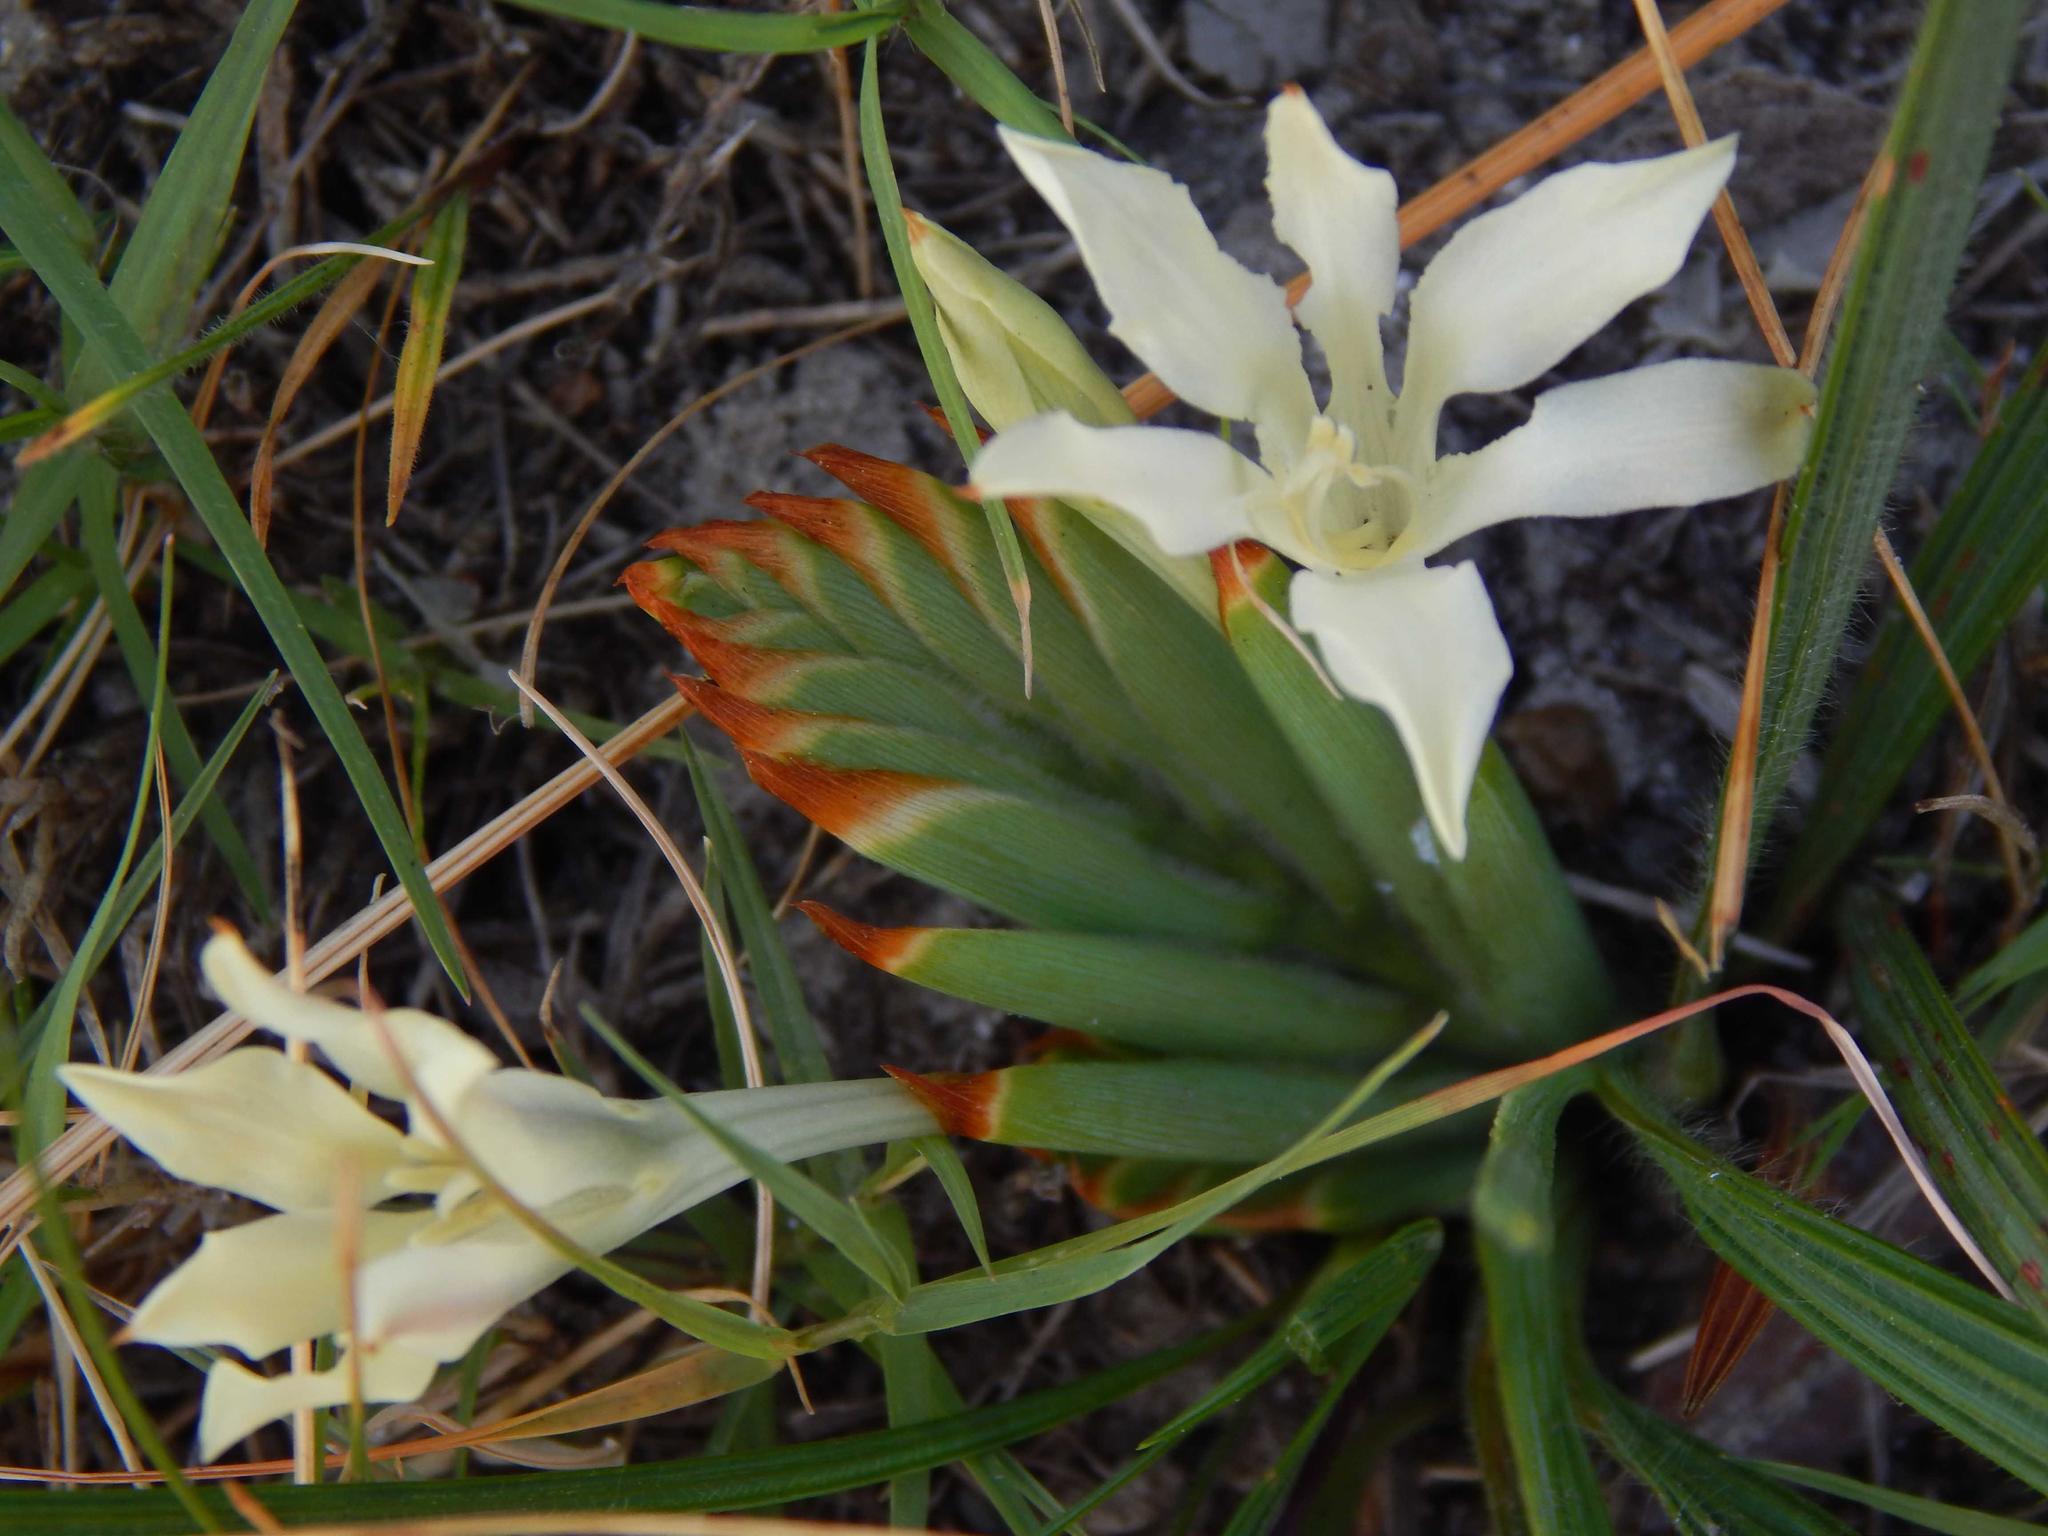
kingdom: Plantae
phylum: Tracheophyta
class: Liliopsida
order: Asparagales
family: Iridaceae
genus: Babiana
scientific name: Babiana tubulosa
